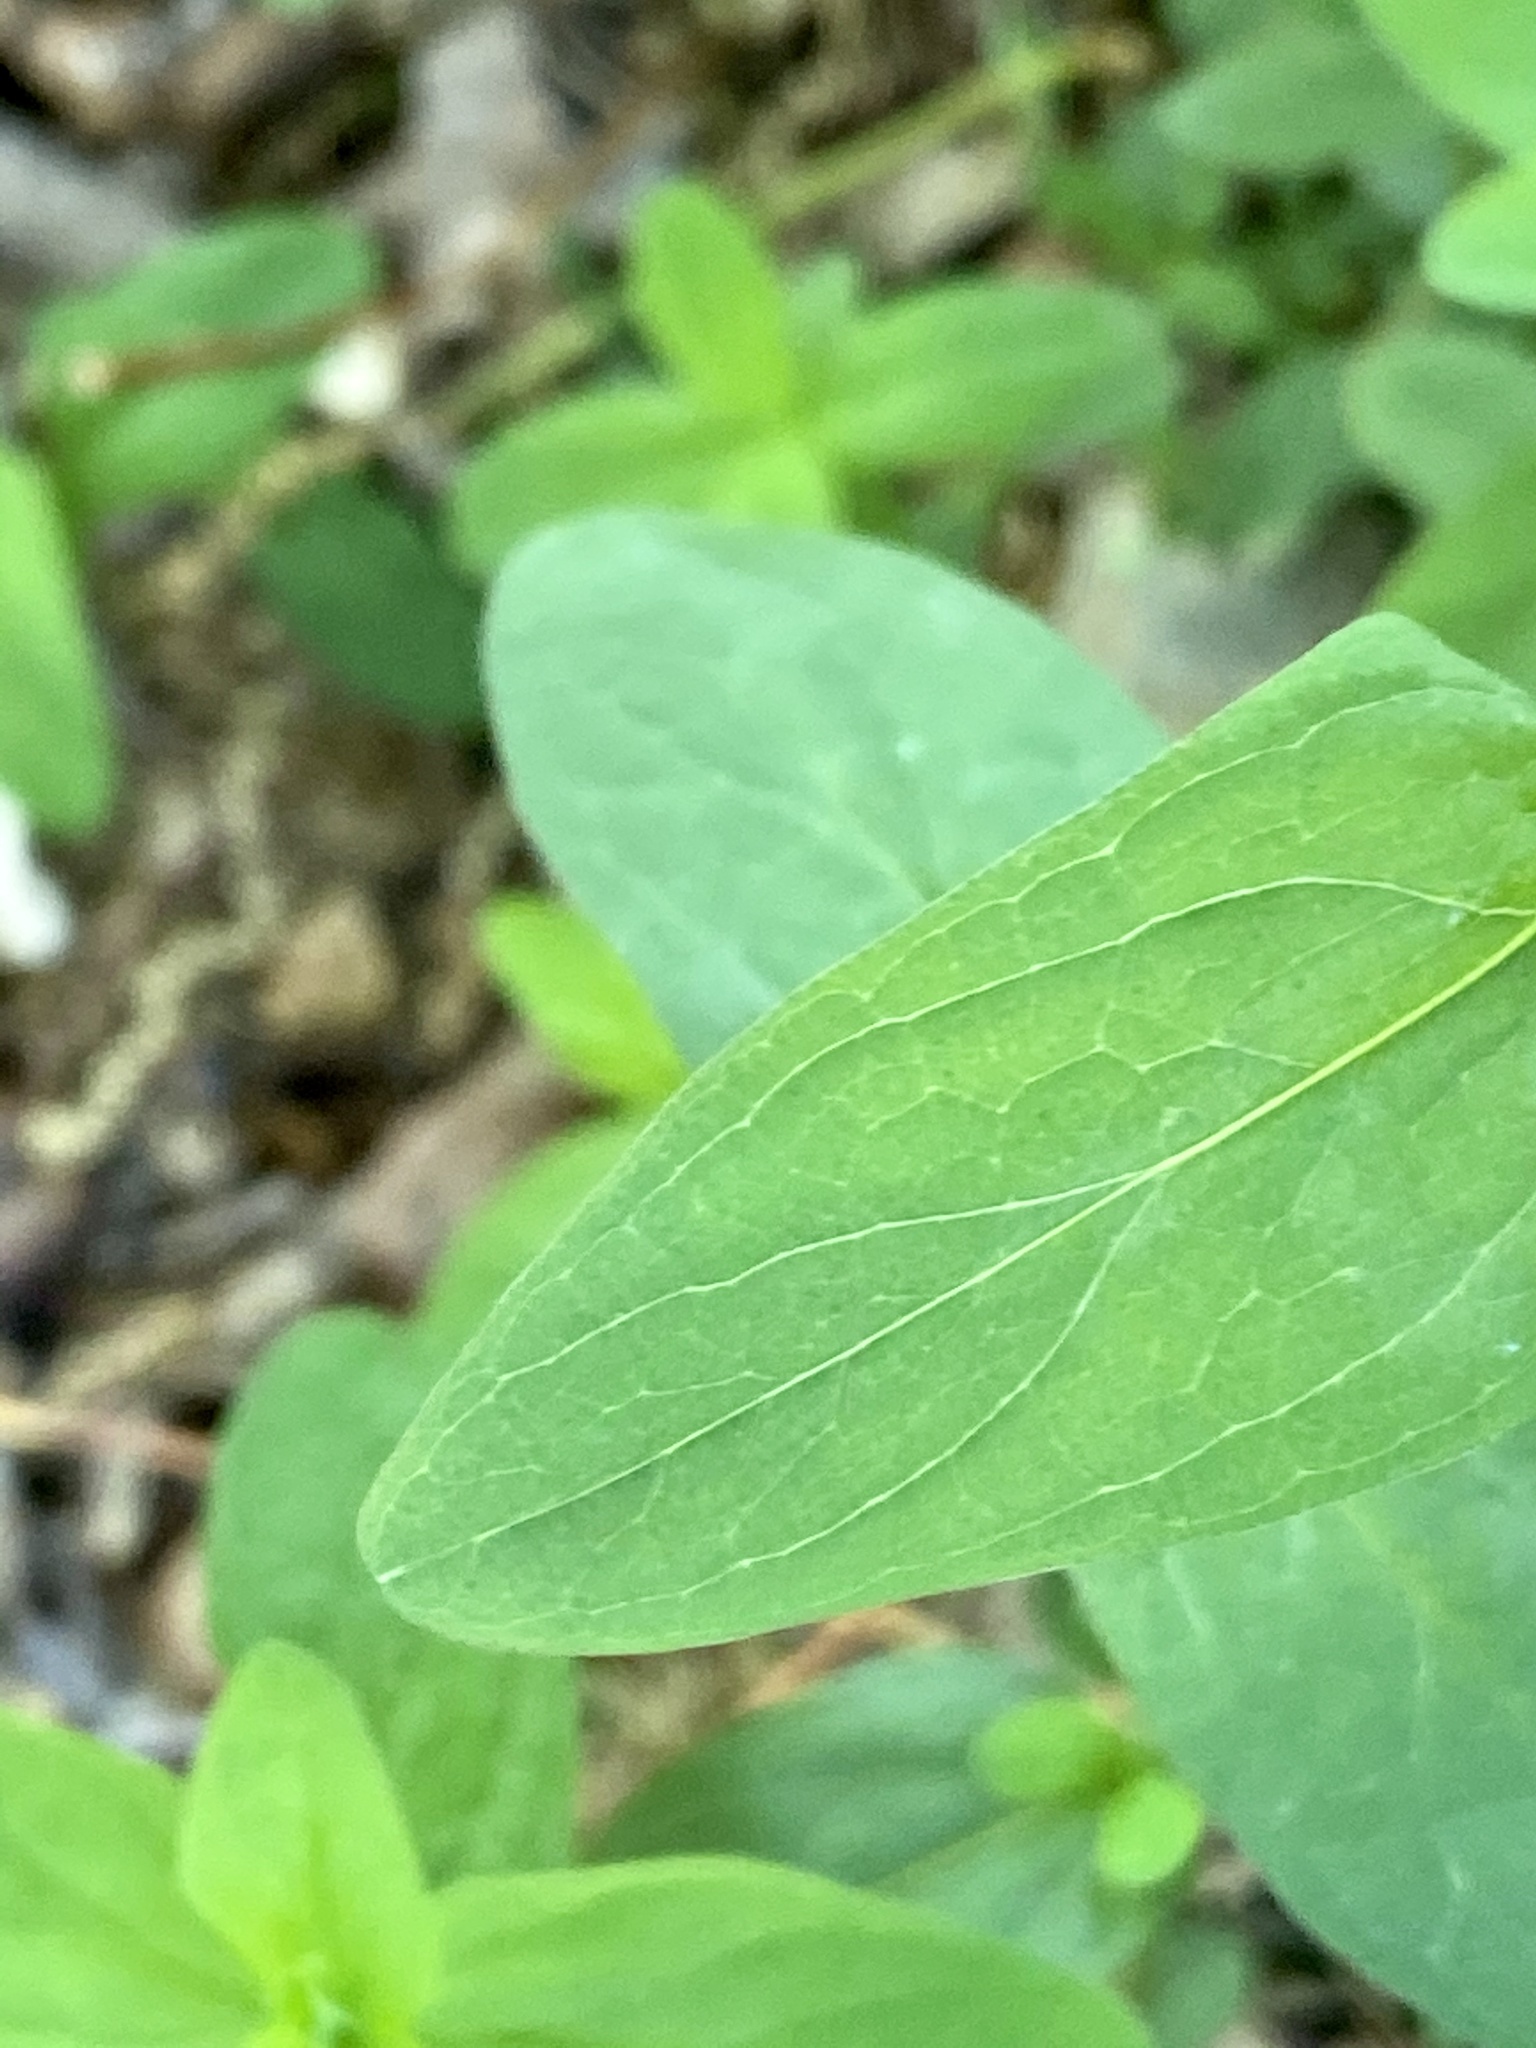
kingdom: Plantae
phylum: Tracheophyta
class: Magnoliopsida
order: Malpighiales
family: Hypericaceae
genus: Hypericum
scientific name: Hypericum punctatum
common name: Spotted st. john's-wort
